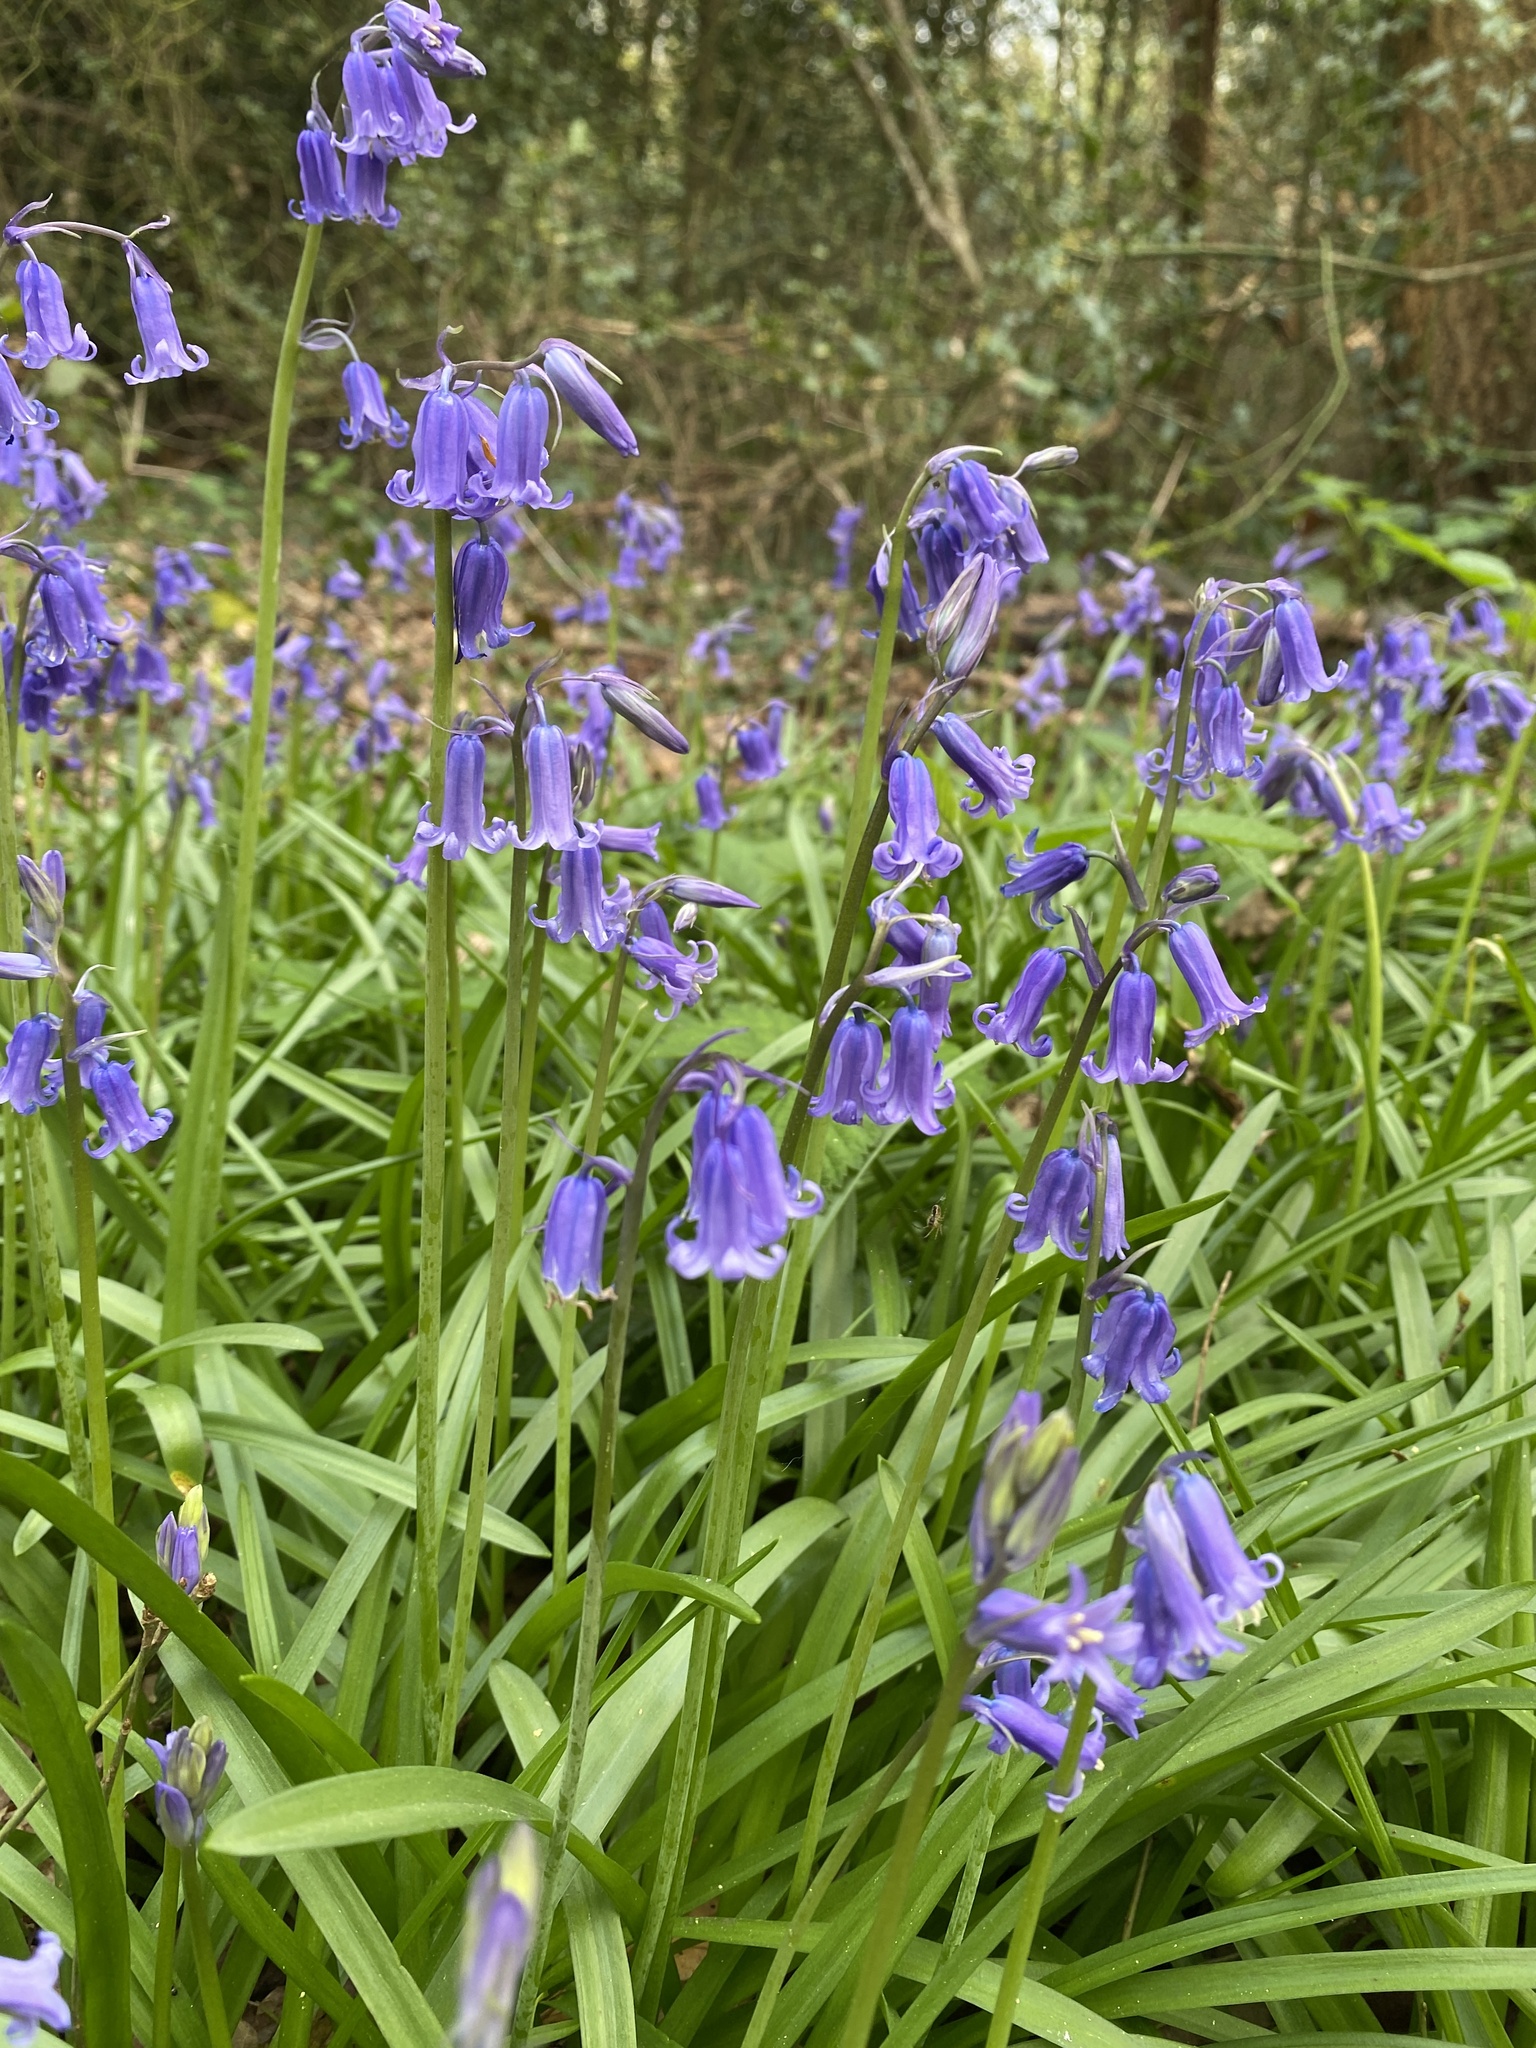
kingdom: Plantae
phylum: Tracheophyta
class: Liliopsida
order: Asparagales
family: Asparagaceae
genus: Hyacinthoides
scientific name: Hyacinthoides non-scripta
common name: Bluebell
